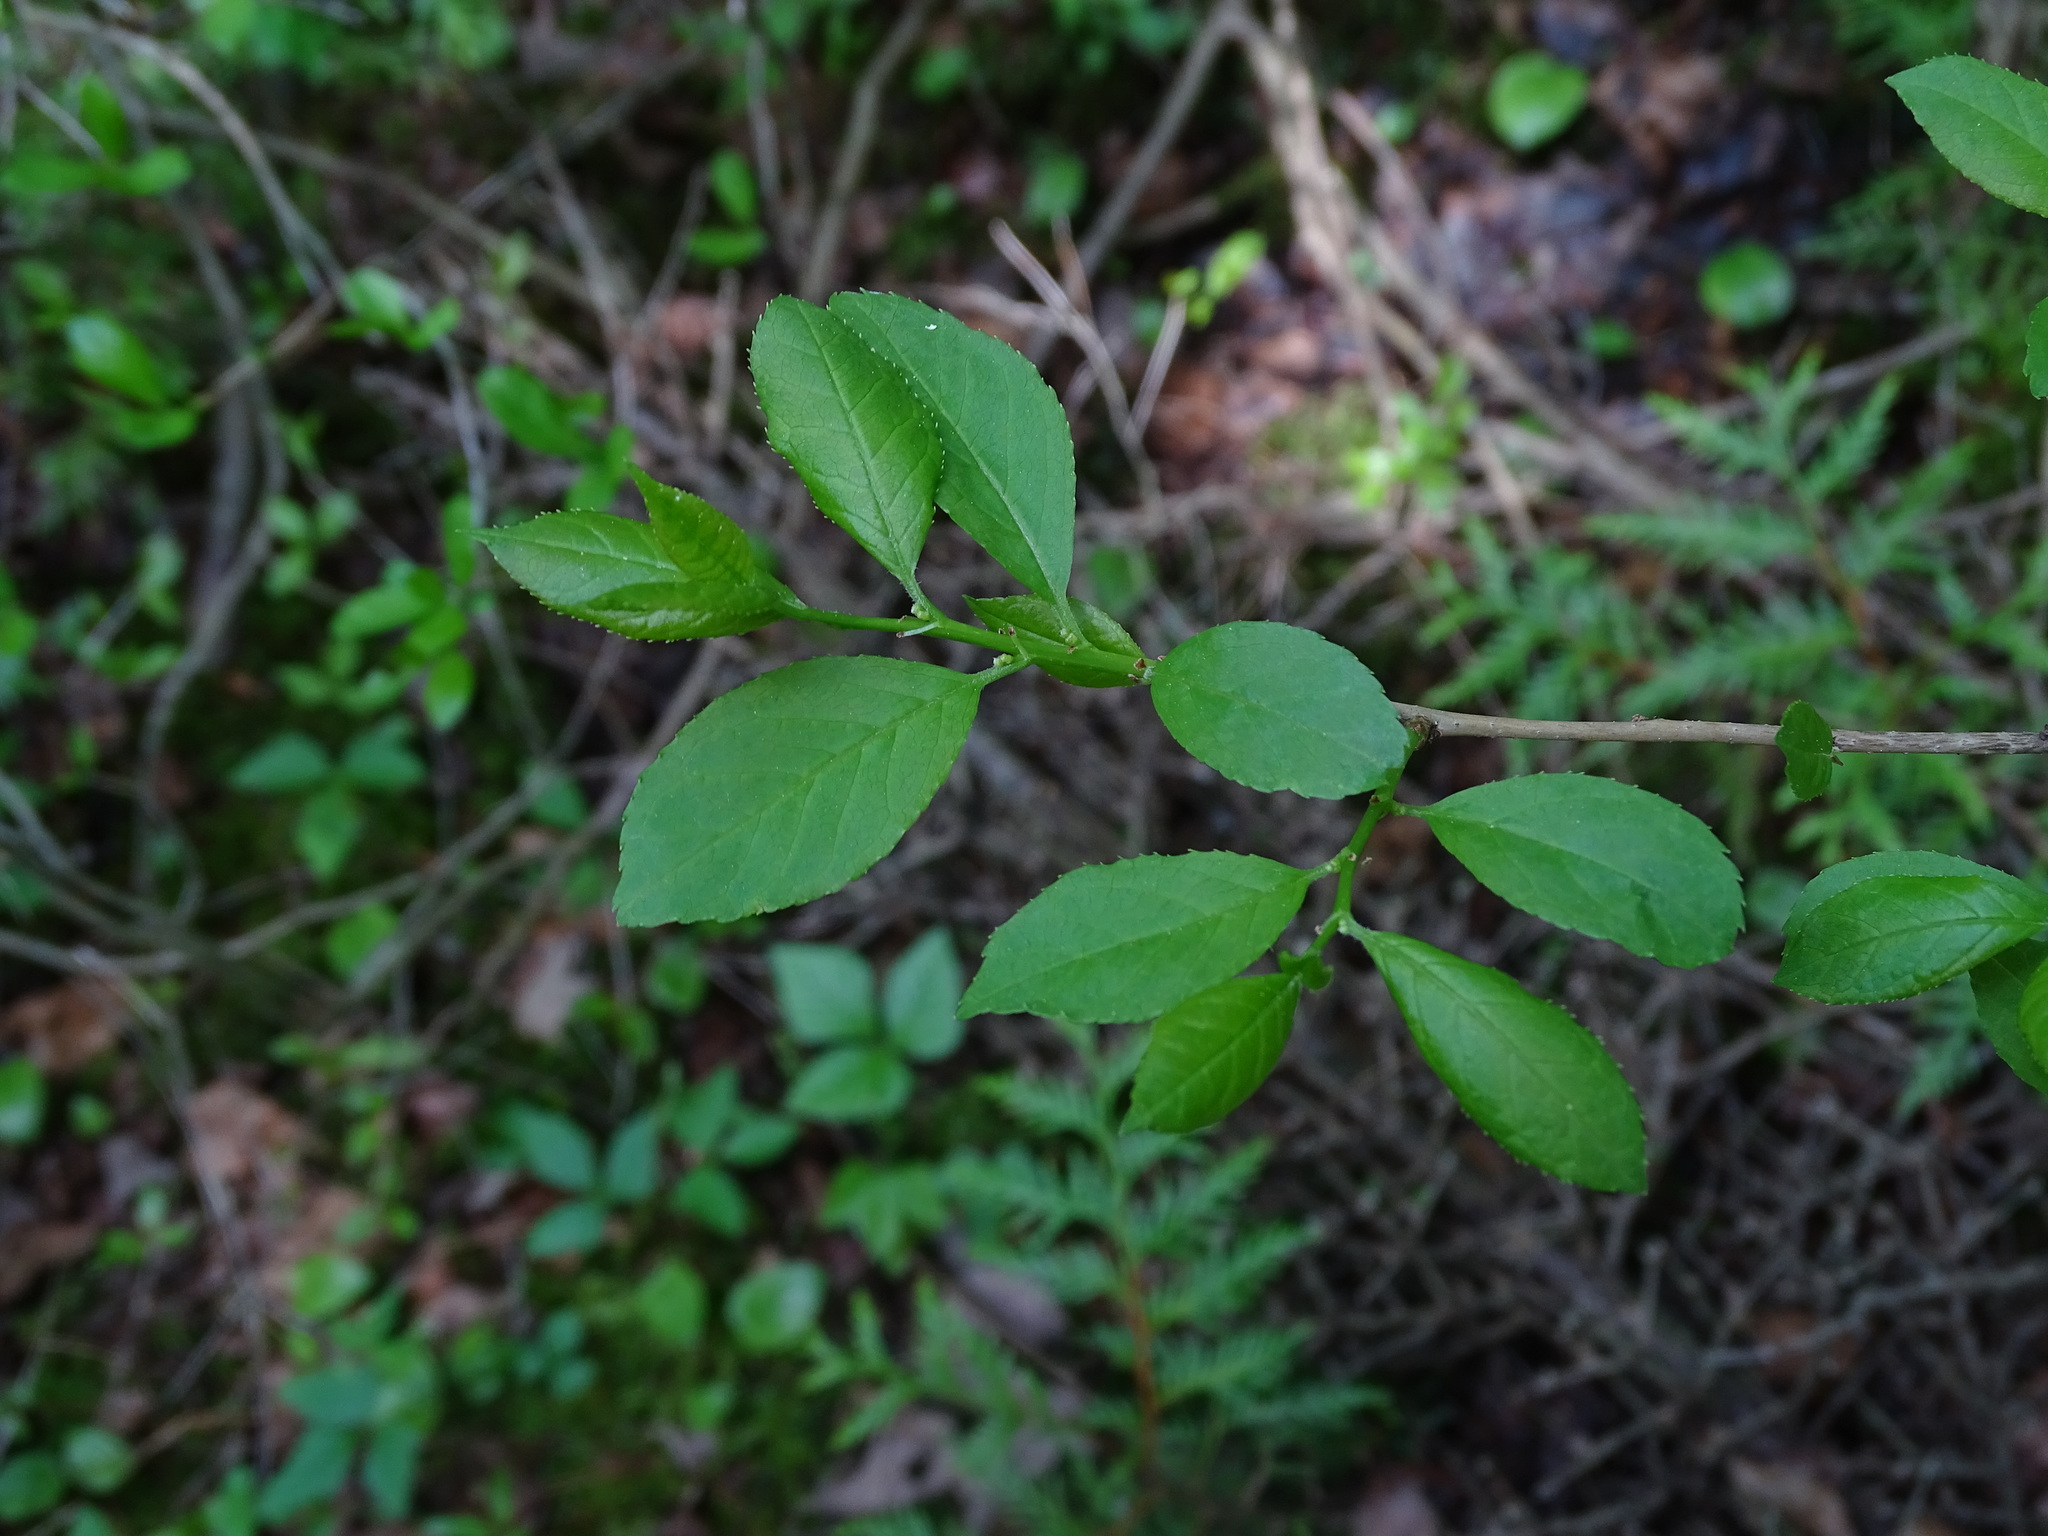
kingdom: Plantae
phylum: Tracheophyta
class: Magnoliopsida
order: Aquifoliales
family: Aquifoliaceae
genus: Ilex
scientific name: Ilex verticillata
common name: Virginia winterberry
